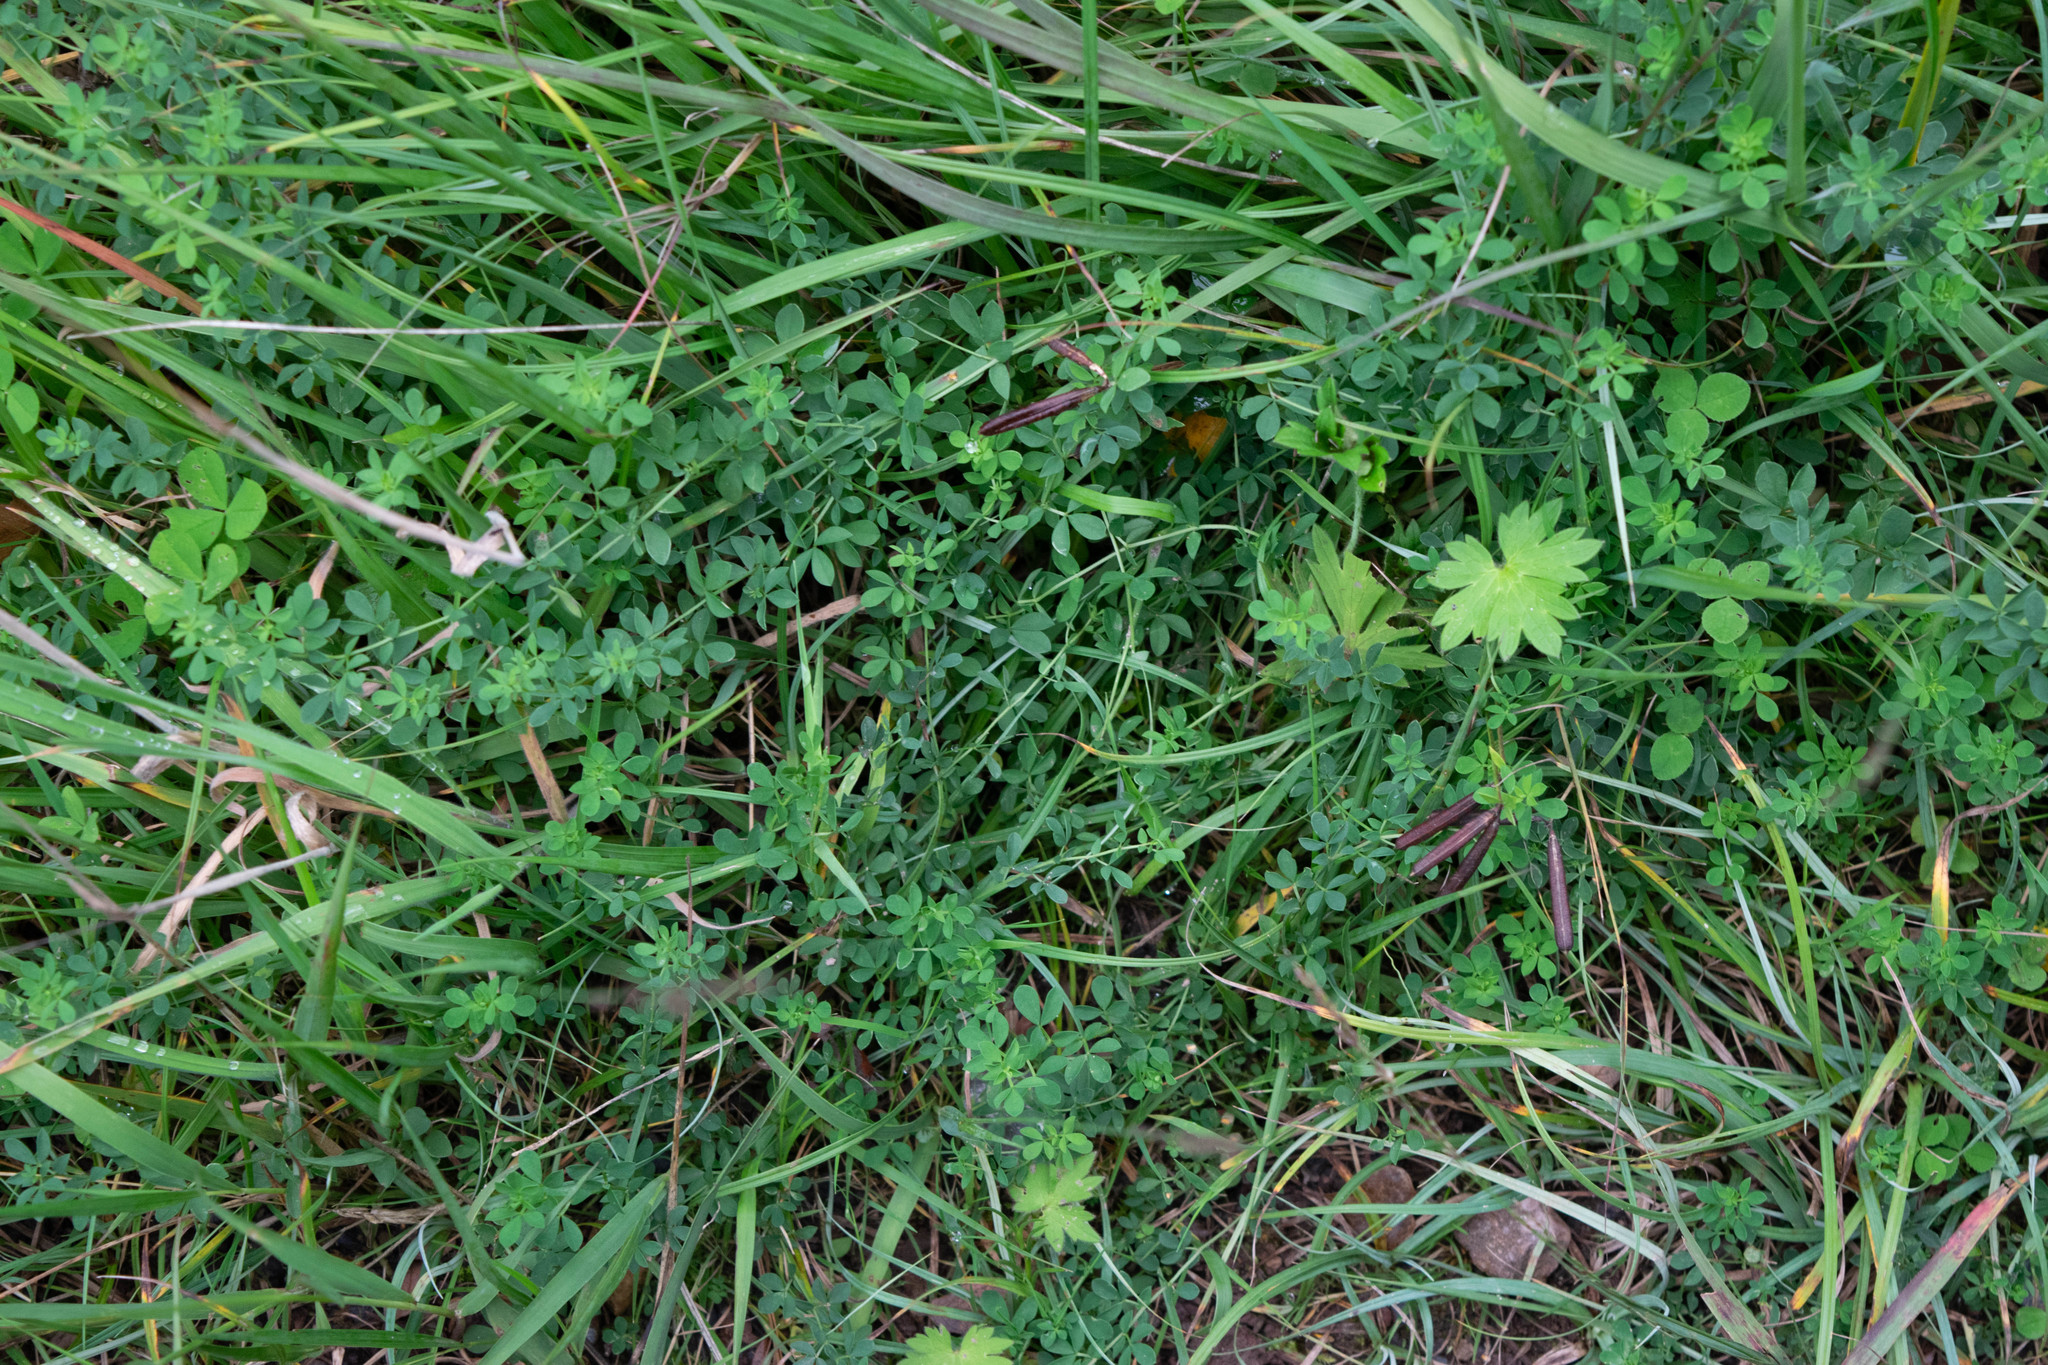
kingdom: Plantae
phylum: Tracheophyta
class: Magnoliopsida
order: Fabales
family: Fabaceae
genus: Lotus
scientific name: Lotus corniculatus
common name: Common bird's-foot-trefoil
